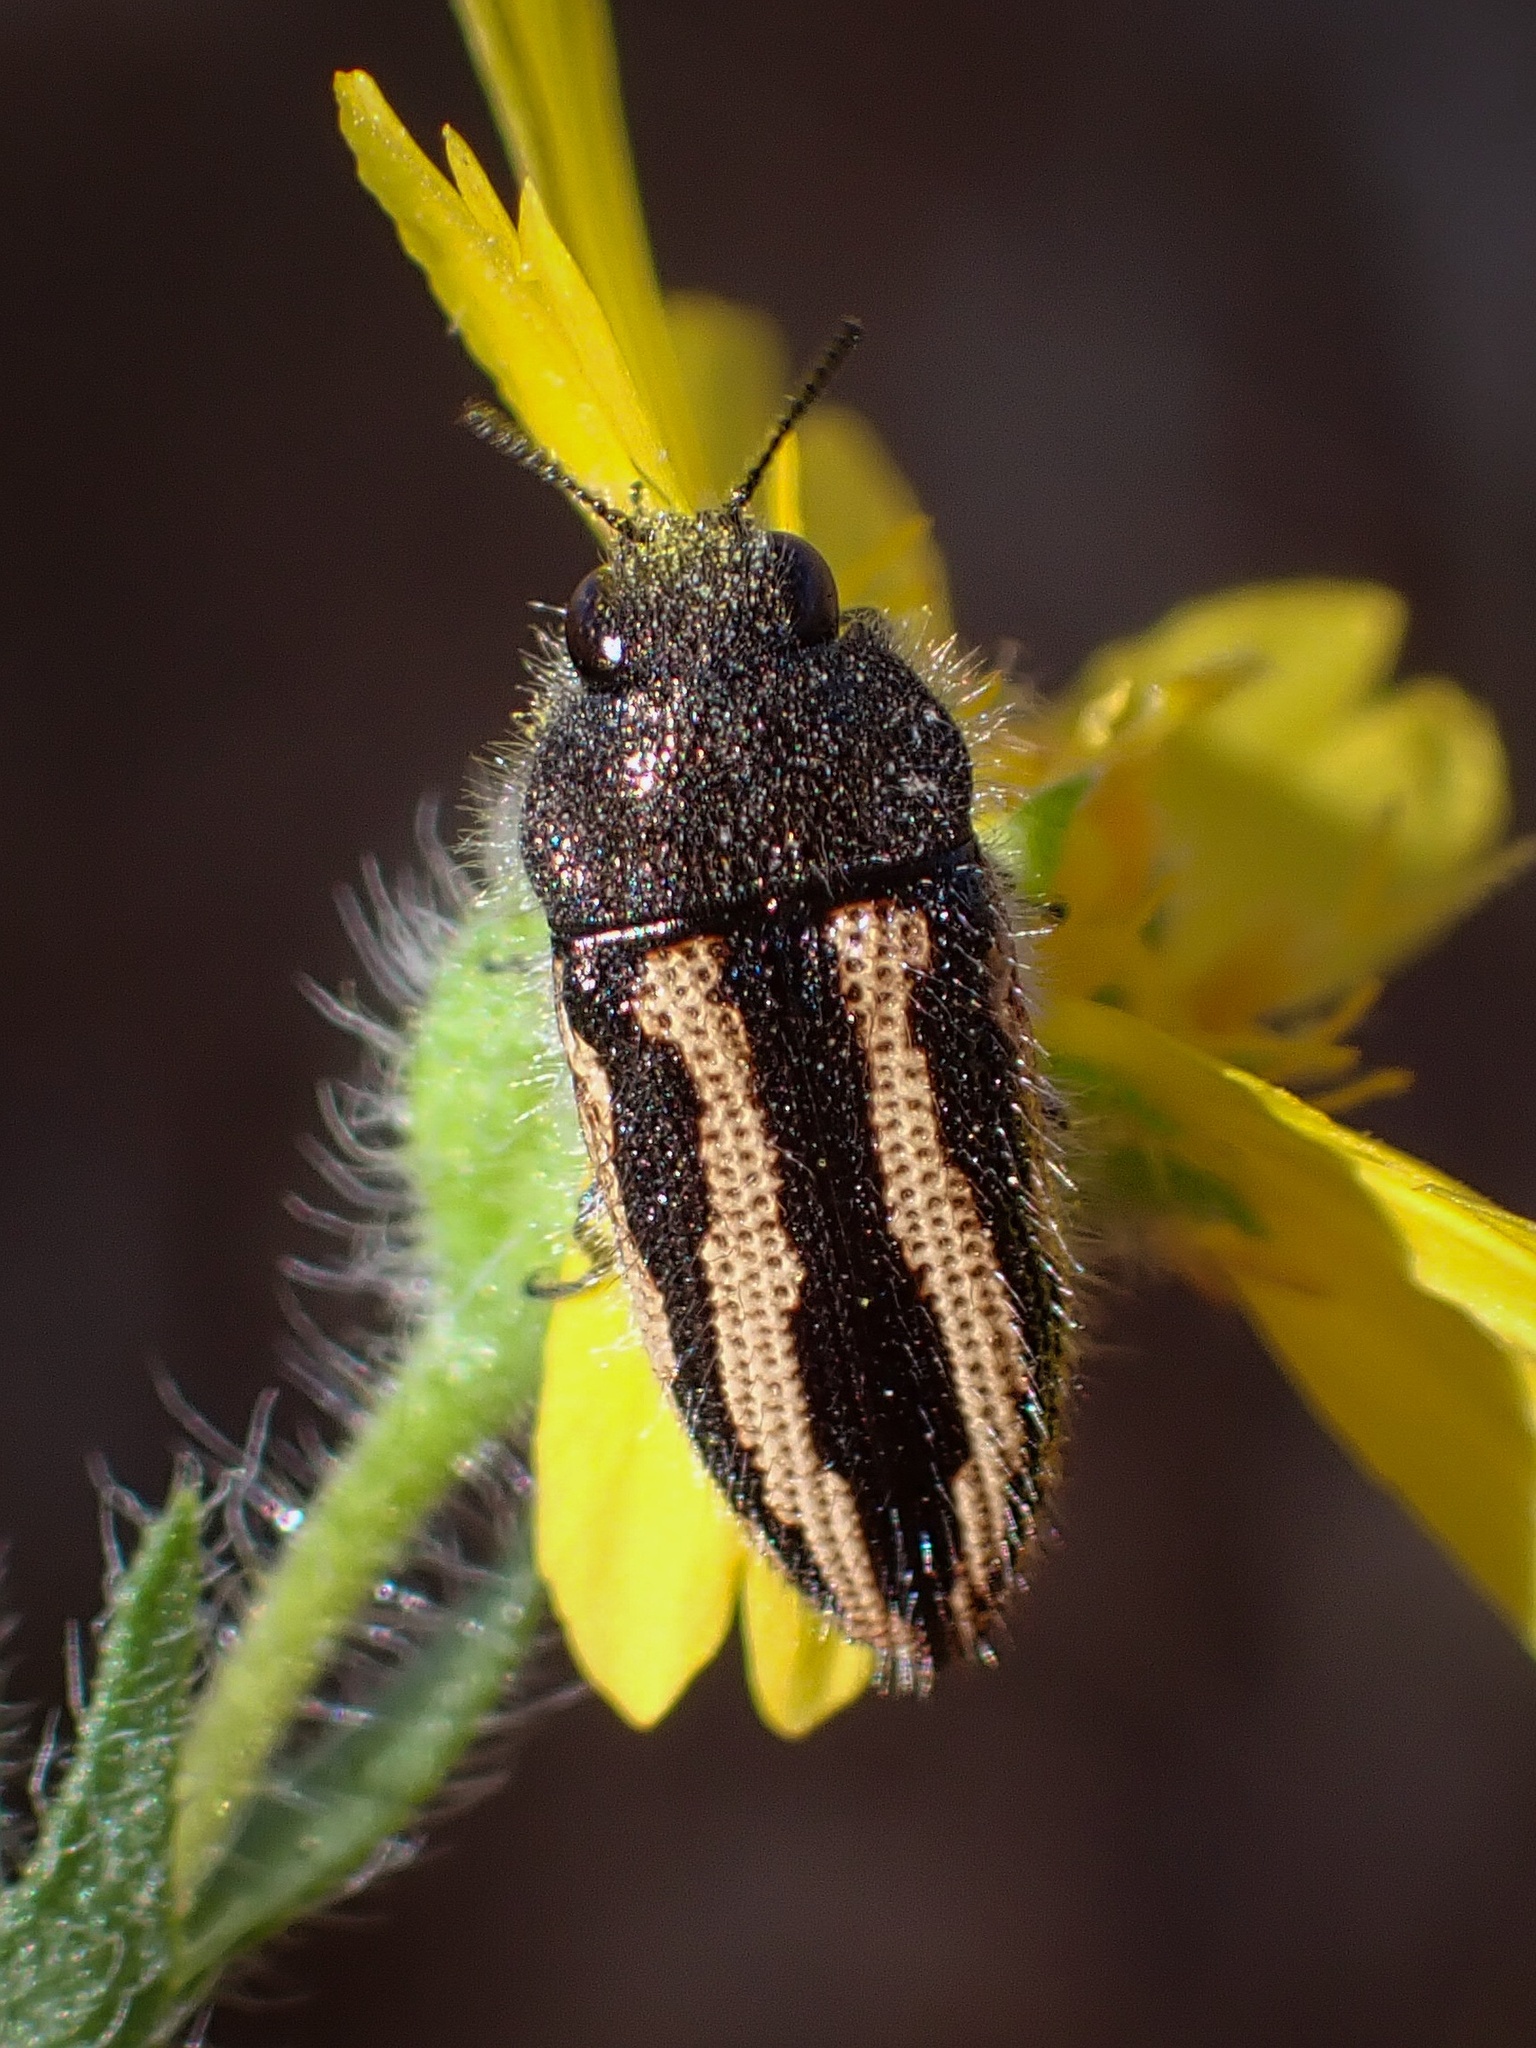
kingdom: Animalia
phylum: Arthropoda
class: Insecta
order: Coleoptera
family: Buprestidae
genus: Acmaeodera
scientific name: Acmaeodera nigrovittata
